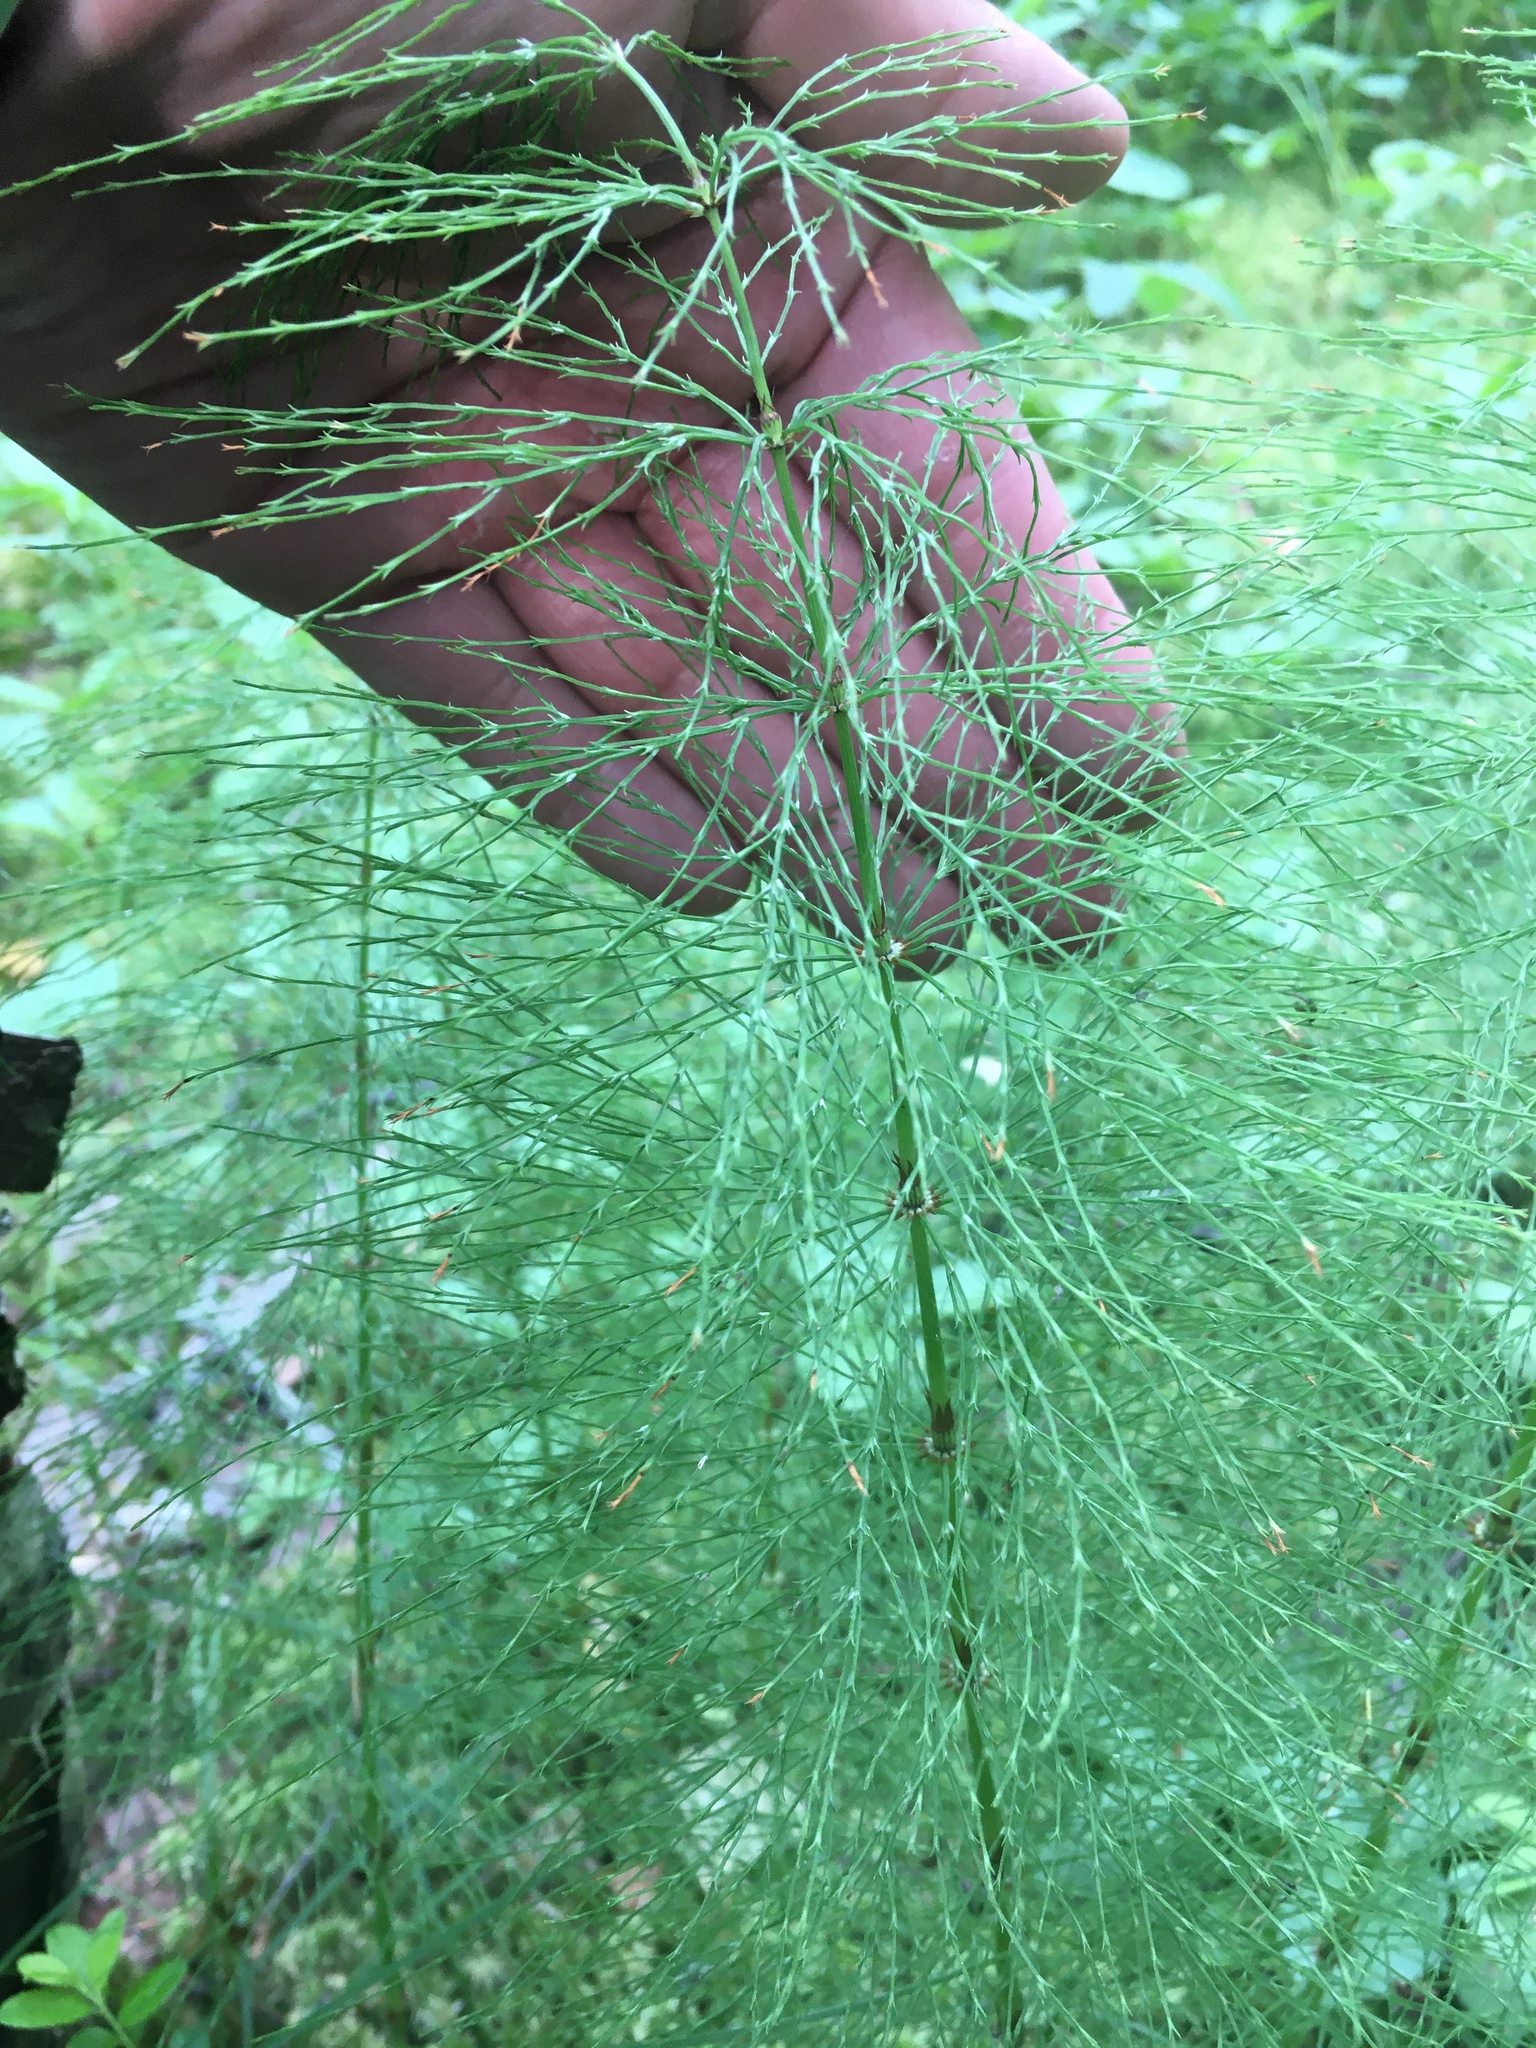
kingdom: Plantae
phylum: Tracheophyta
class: Polypodiopsida
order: Equisetales
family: Equisetaceae
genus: Equisetum
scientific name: Equisetum sylvaticum
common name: Wood horsetail
